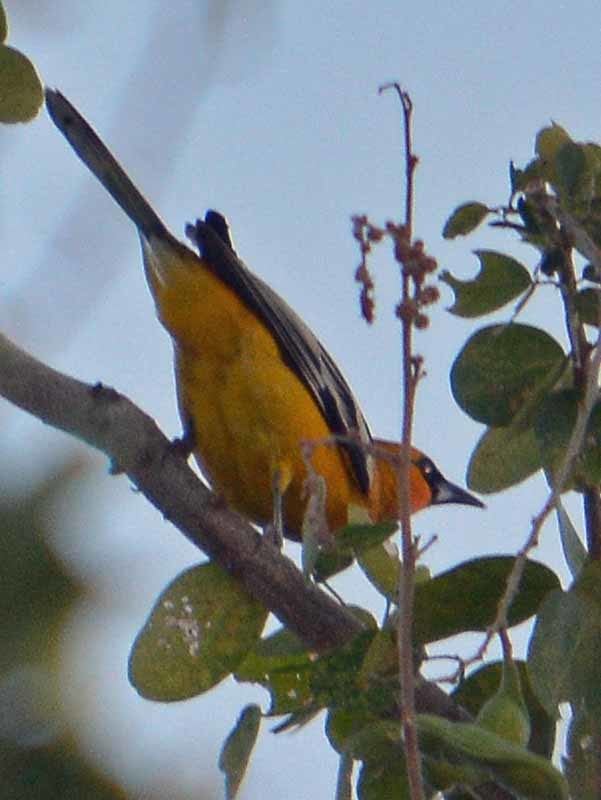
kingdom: Animalia
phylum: Chordata
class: Aves
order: Passeriformes
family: Icteridae
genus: Icterus
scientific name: Icterus pustulatus
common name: Streak-backed oriole
